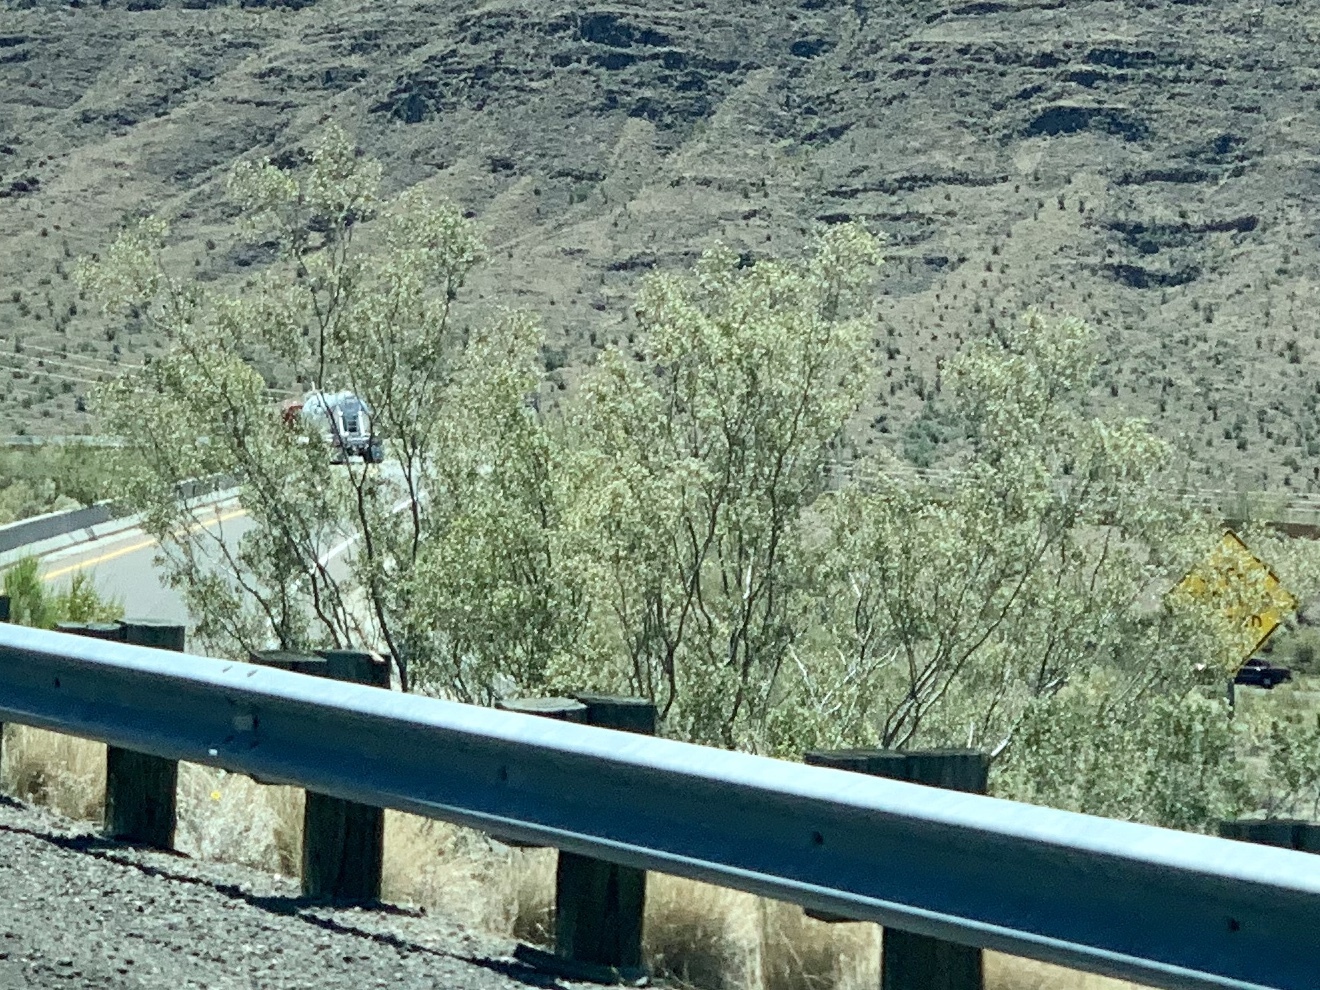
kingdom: Plantae
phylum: Tracheophyta
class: Magnoliopsida
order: Zygophyllales
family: Zygophyllaceae
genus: Larrea
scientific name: Larrea tridentata
